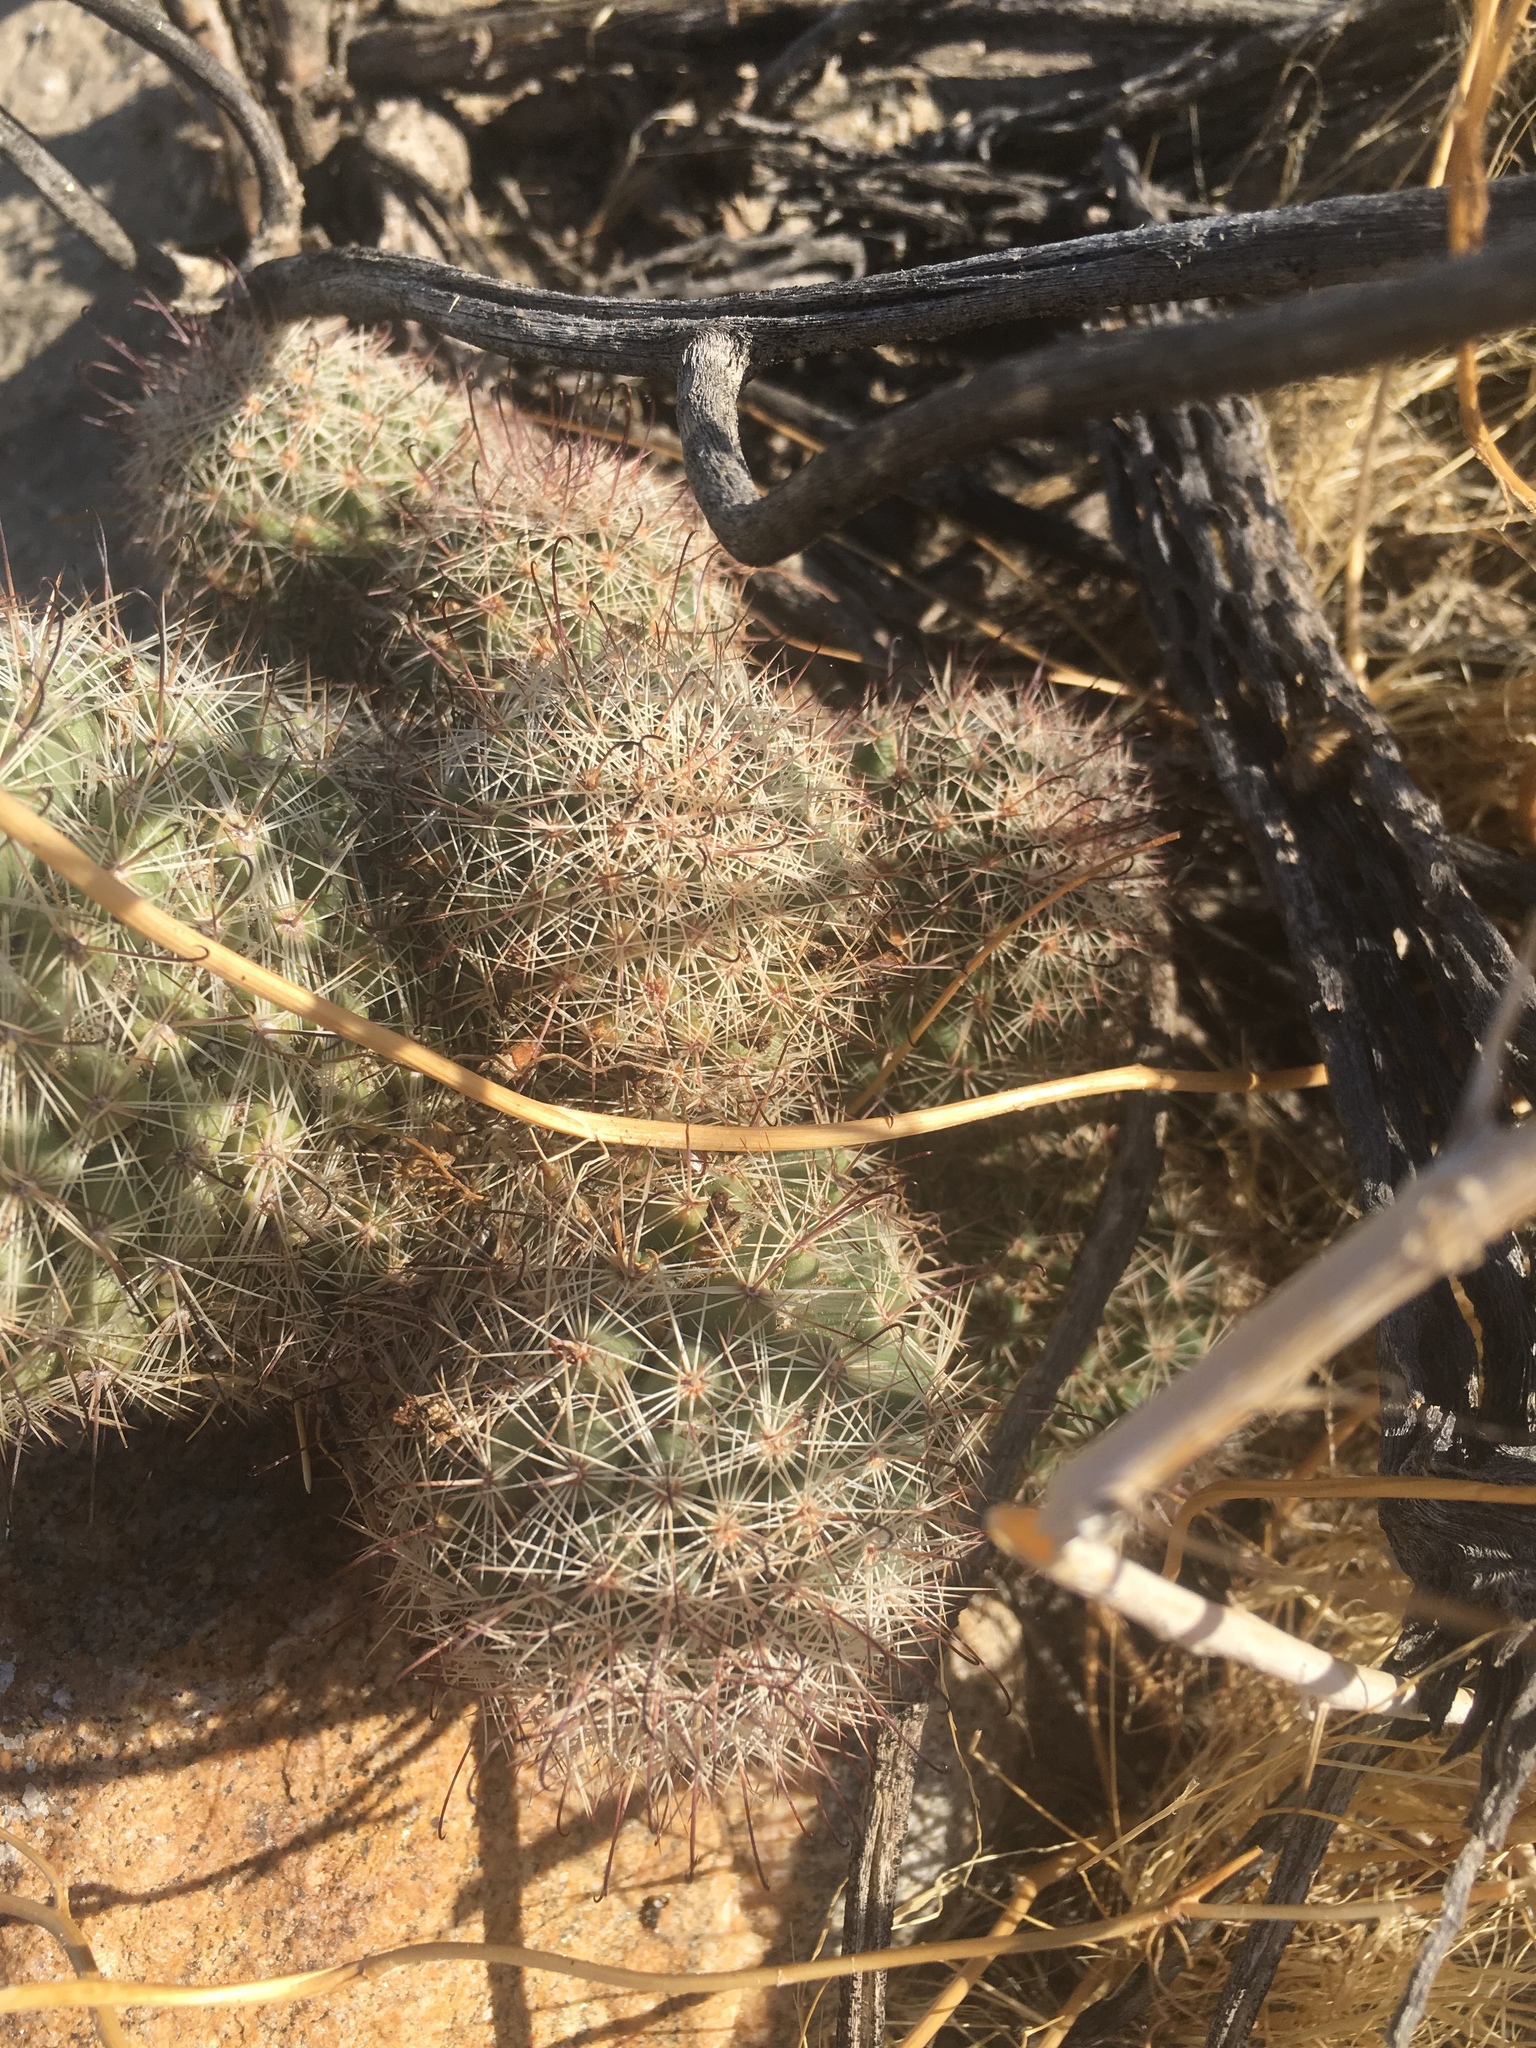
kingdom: Plantae
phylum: Tracheophyta
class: Magnoliopsida
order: Caryophyllales
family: Cactaceae
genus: Cochemiea
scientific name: Cochemiea dioica
